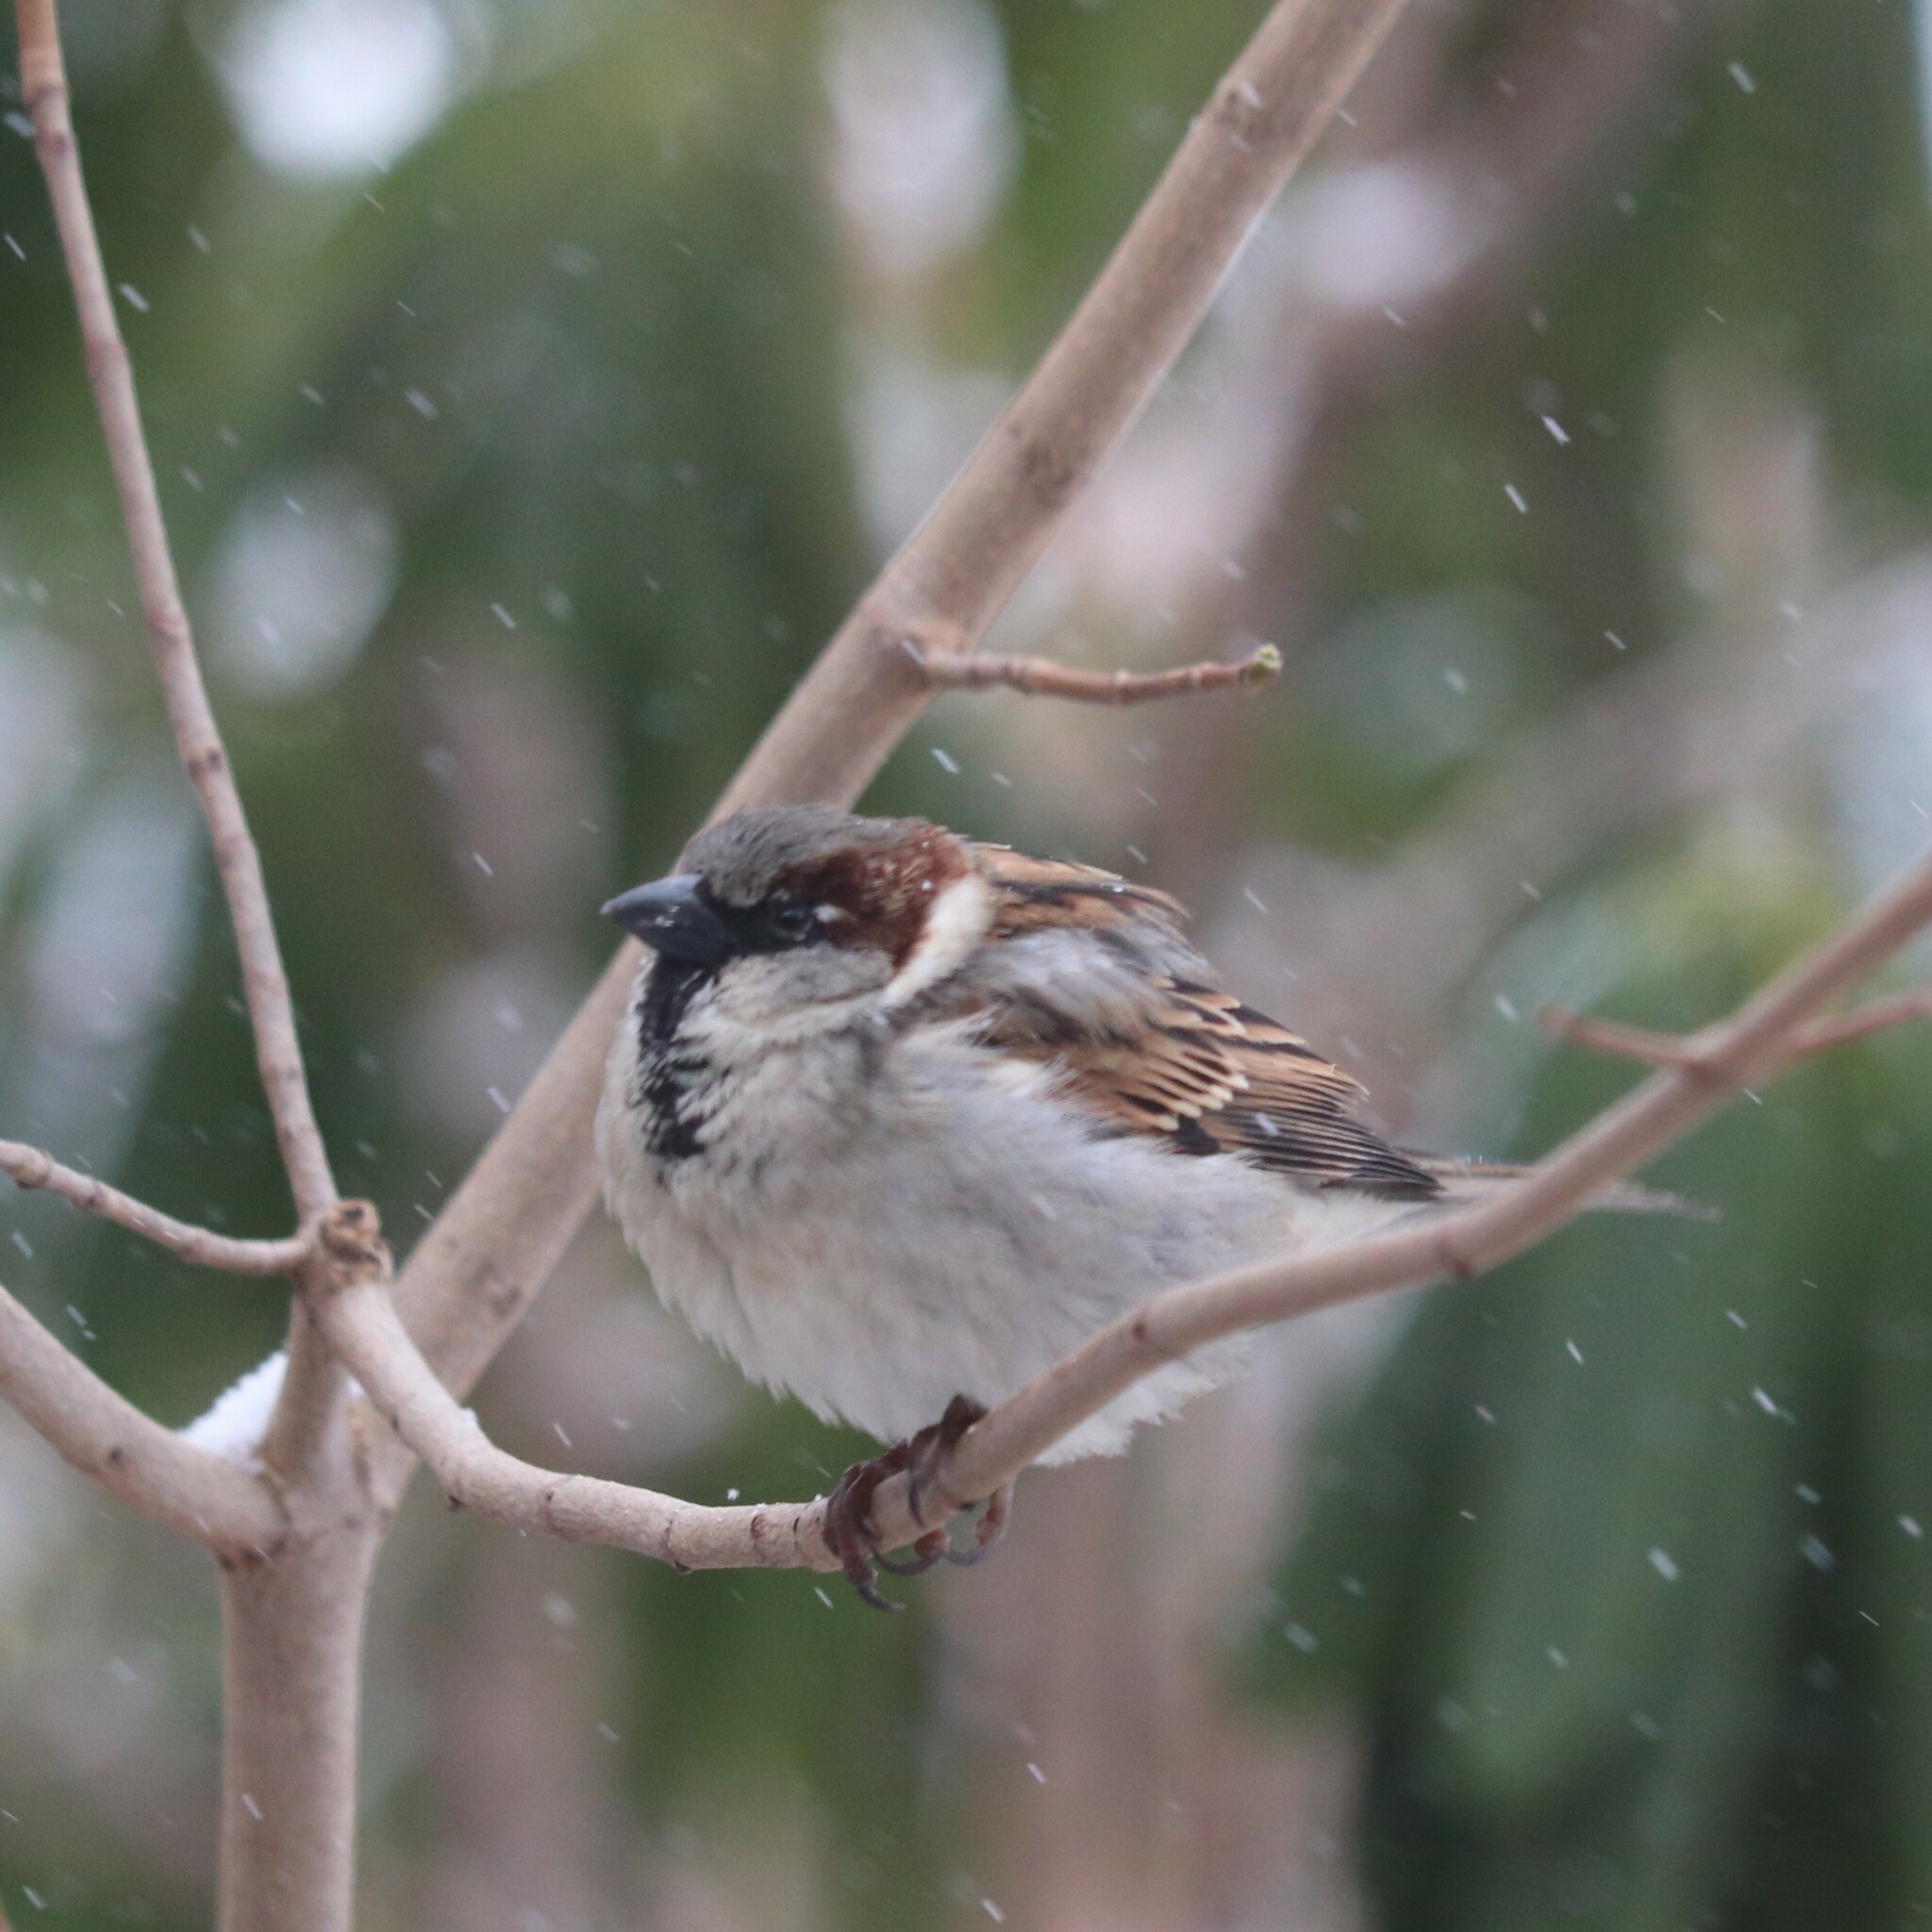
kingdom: Animalia
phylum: Chordata
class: Aves
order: Passeriformes
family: Passeridae
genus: Passer
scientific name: Passer domesticus
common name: House sparrow
